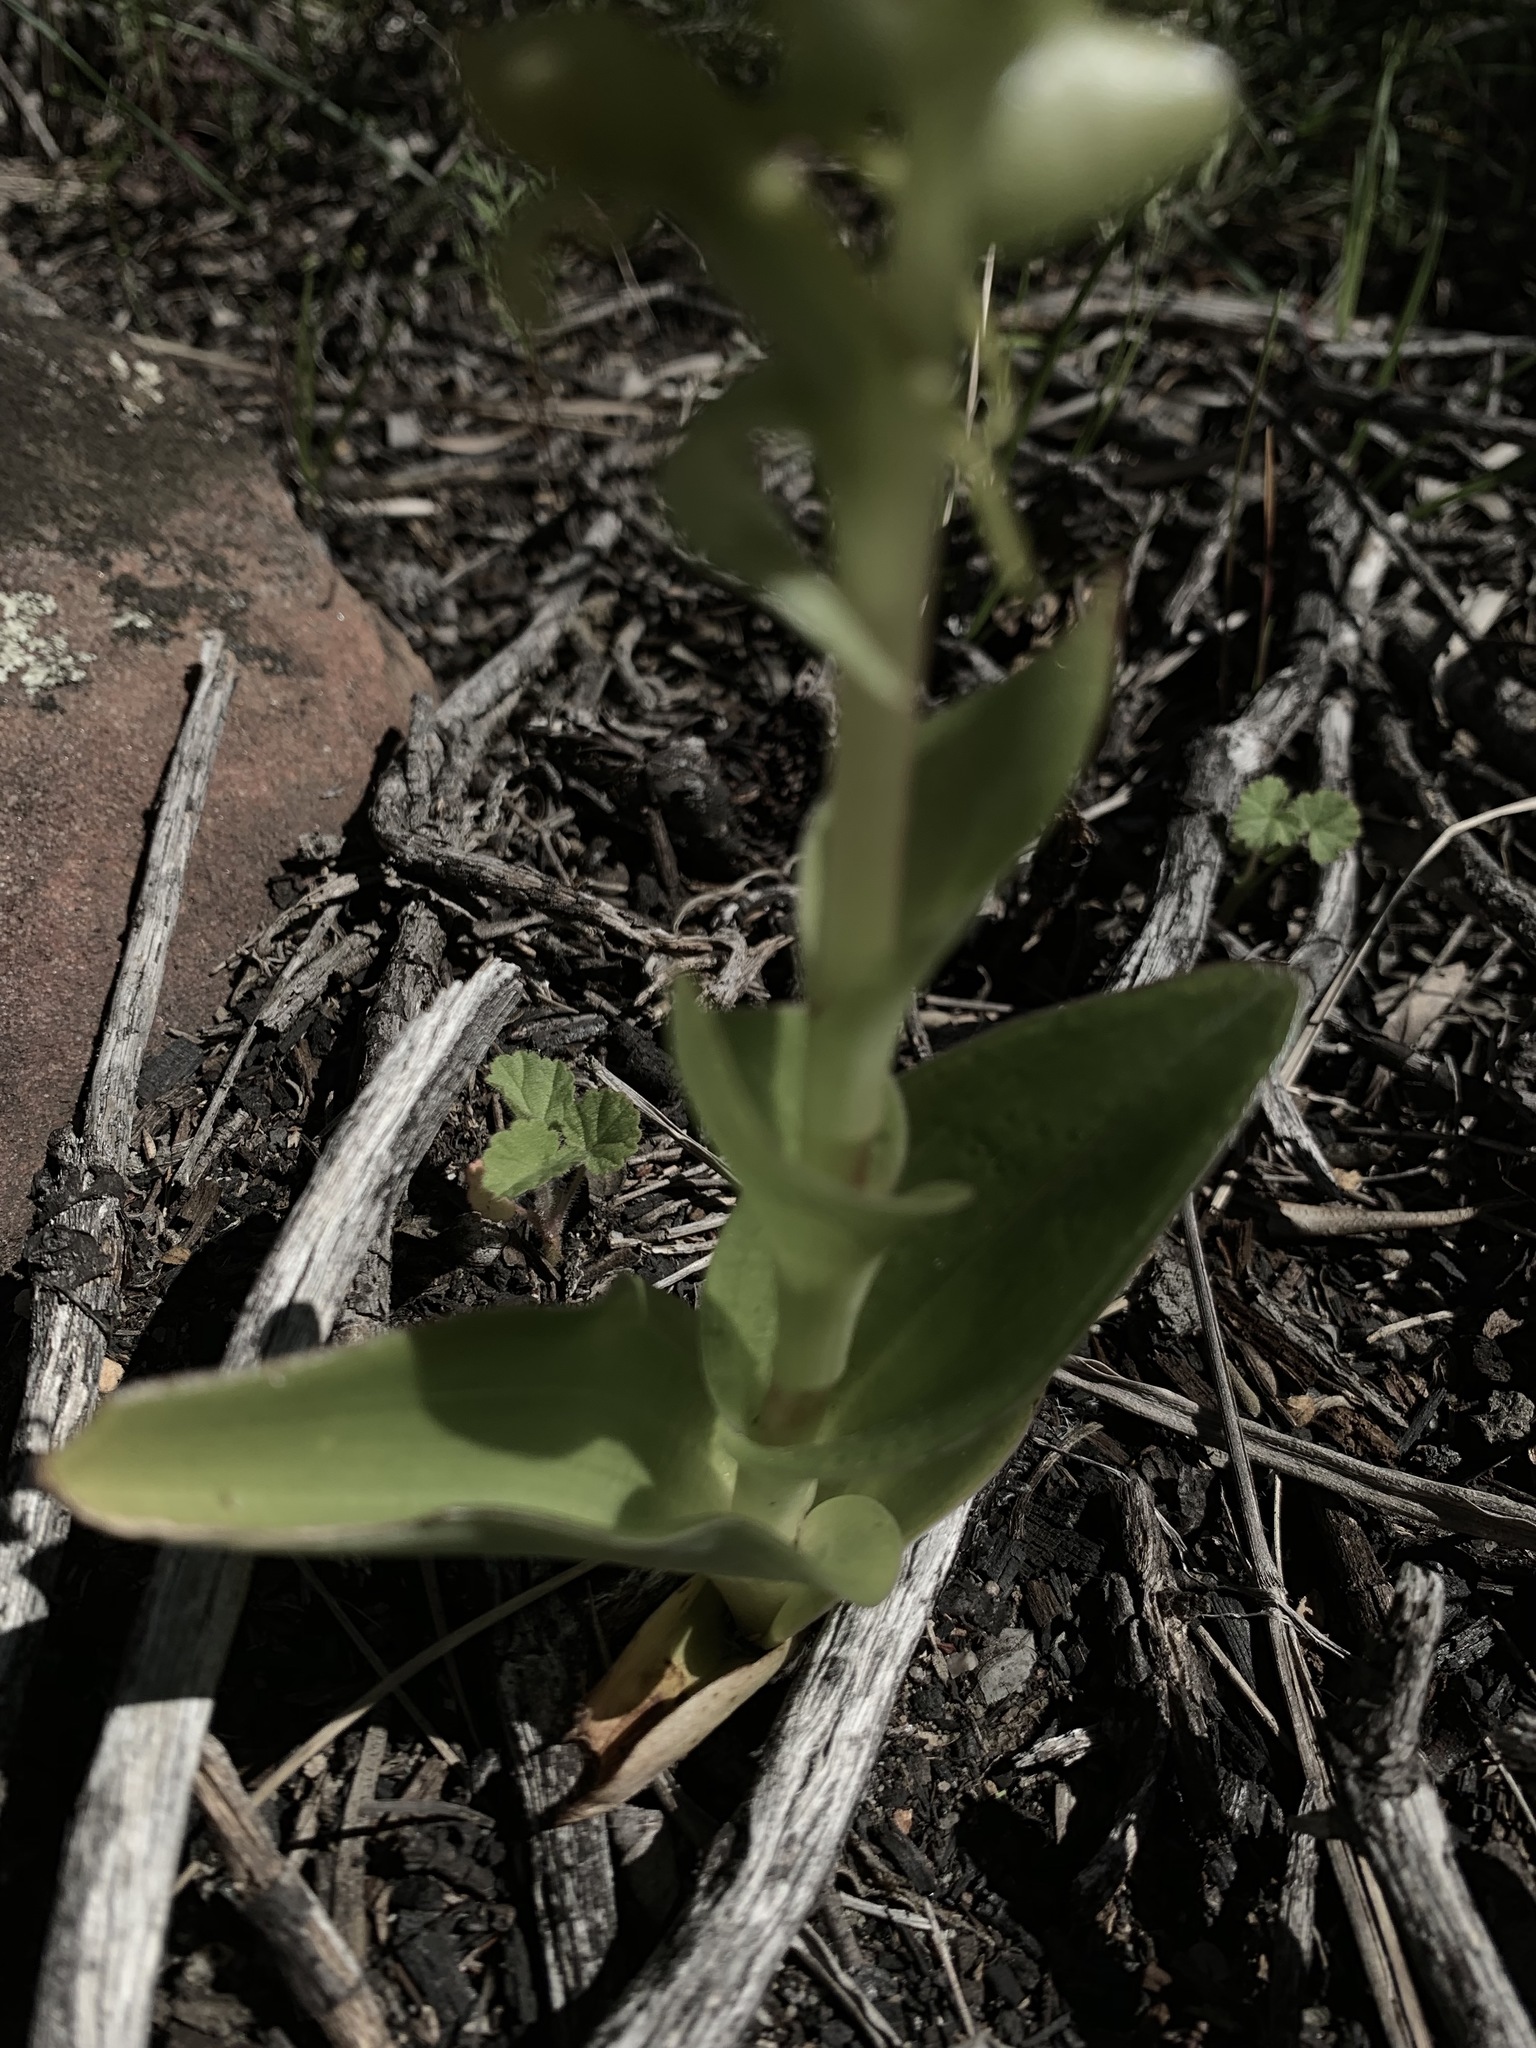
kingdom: Plantae
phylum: Tracheophyta
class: Liliopsida
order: Asparagales
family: Orchidaceae
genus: Satyrium
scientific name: Satyrium odorum
